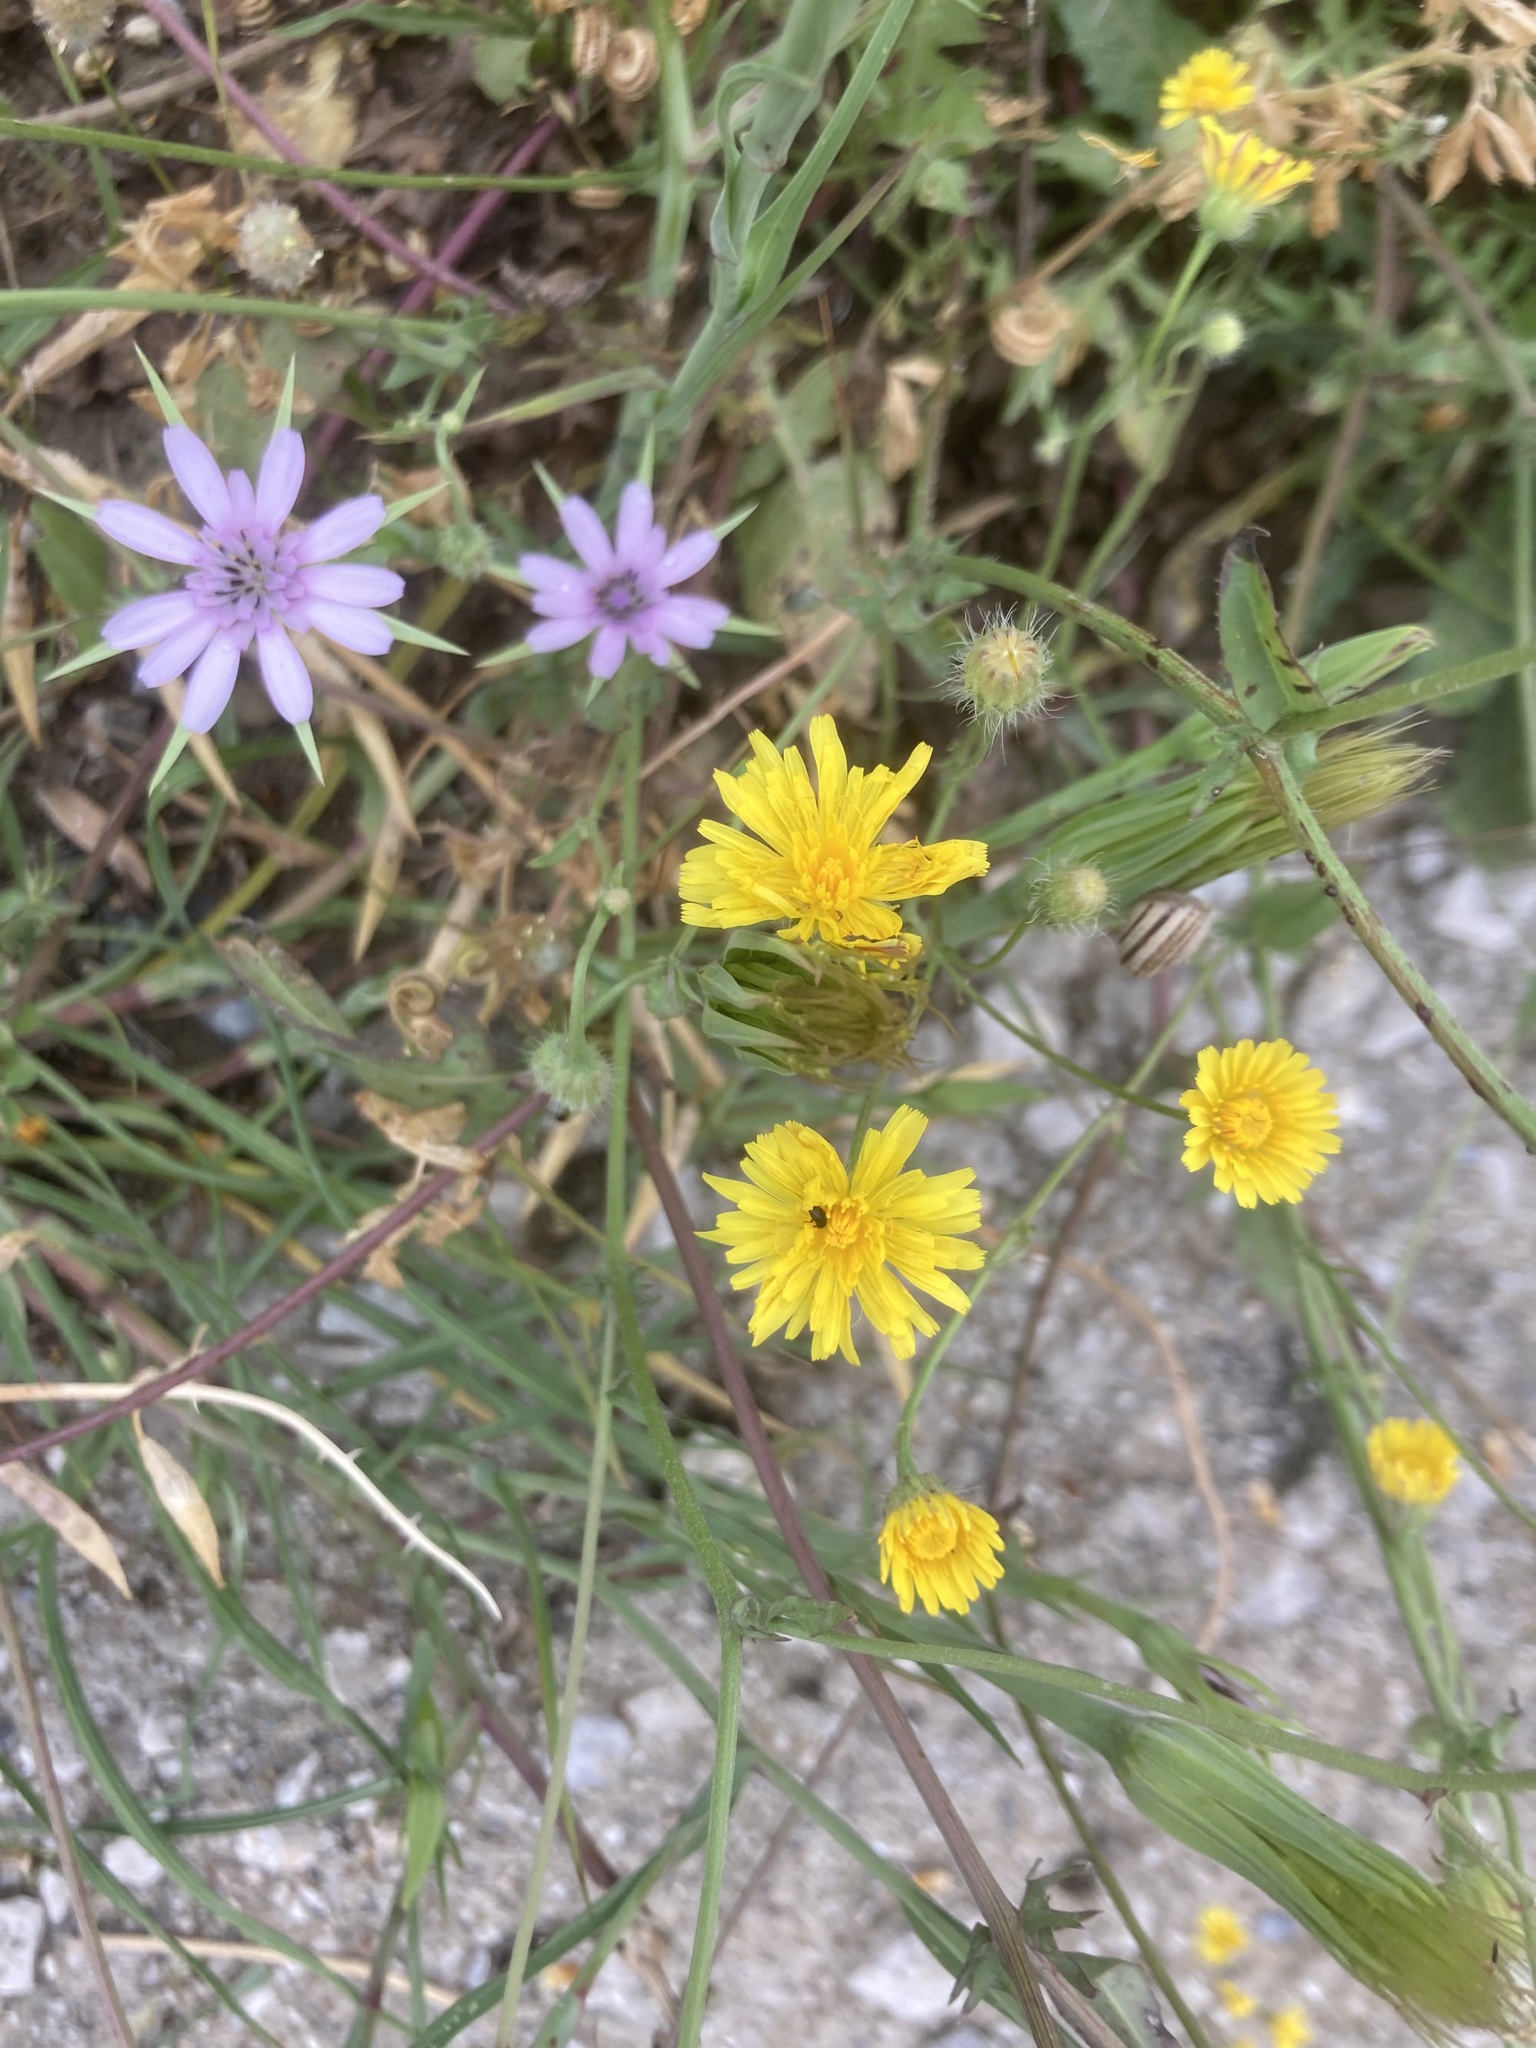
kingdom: Plantae
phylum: Tracheophyta
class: Magnoliopsida
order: Asterales
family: Asteraceae
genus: Crepis
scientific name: Crepis commutata
